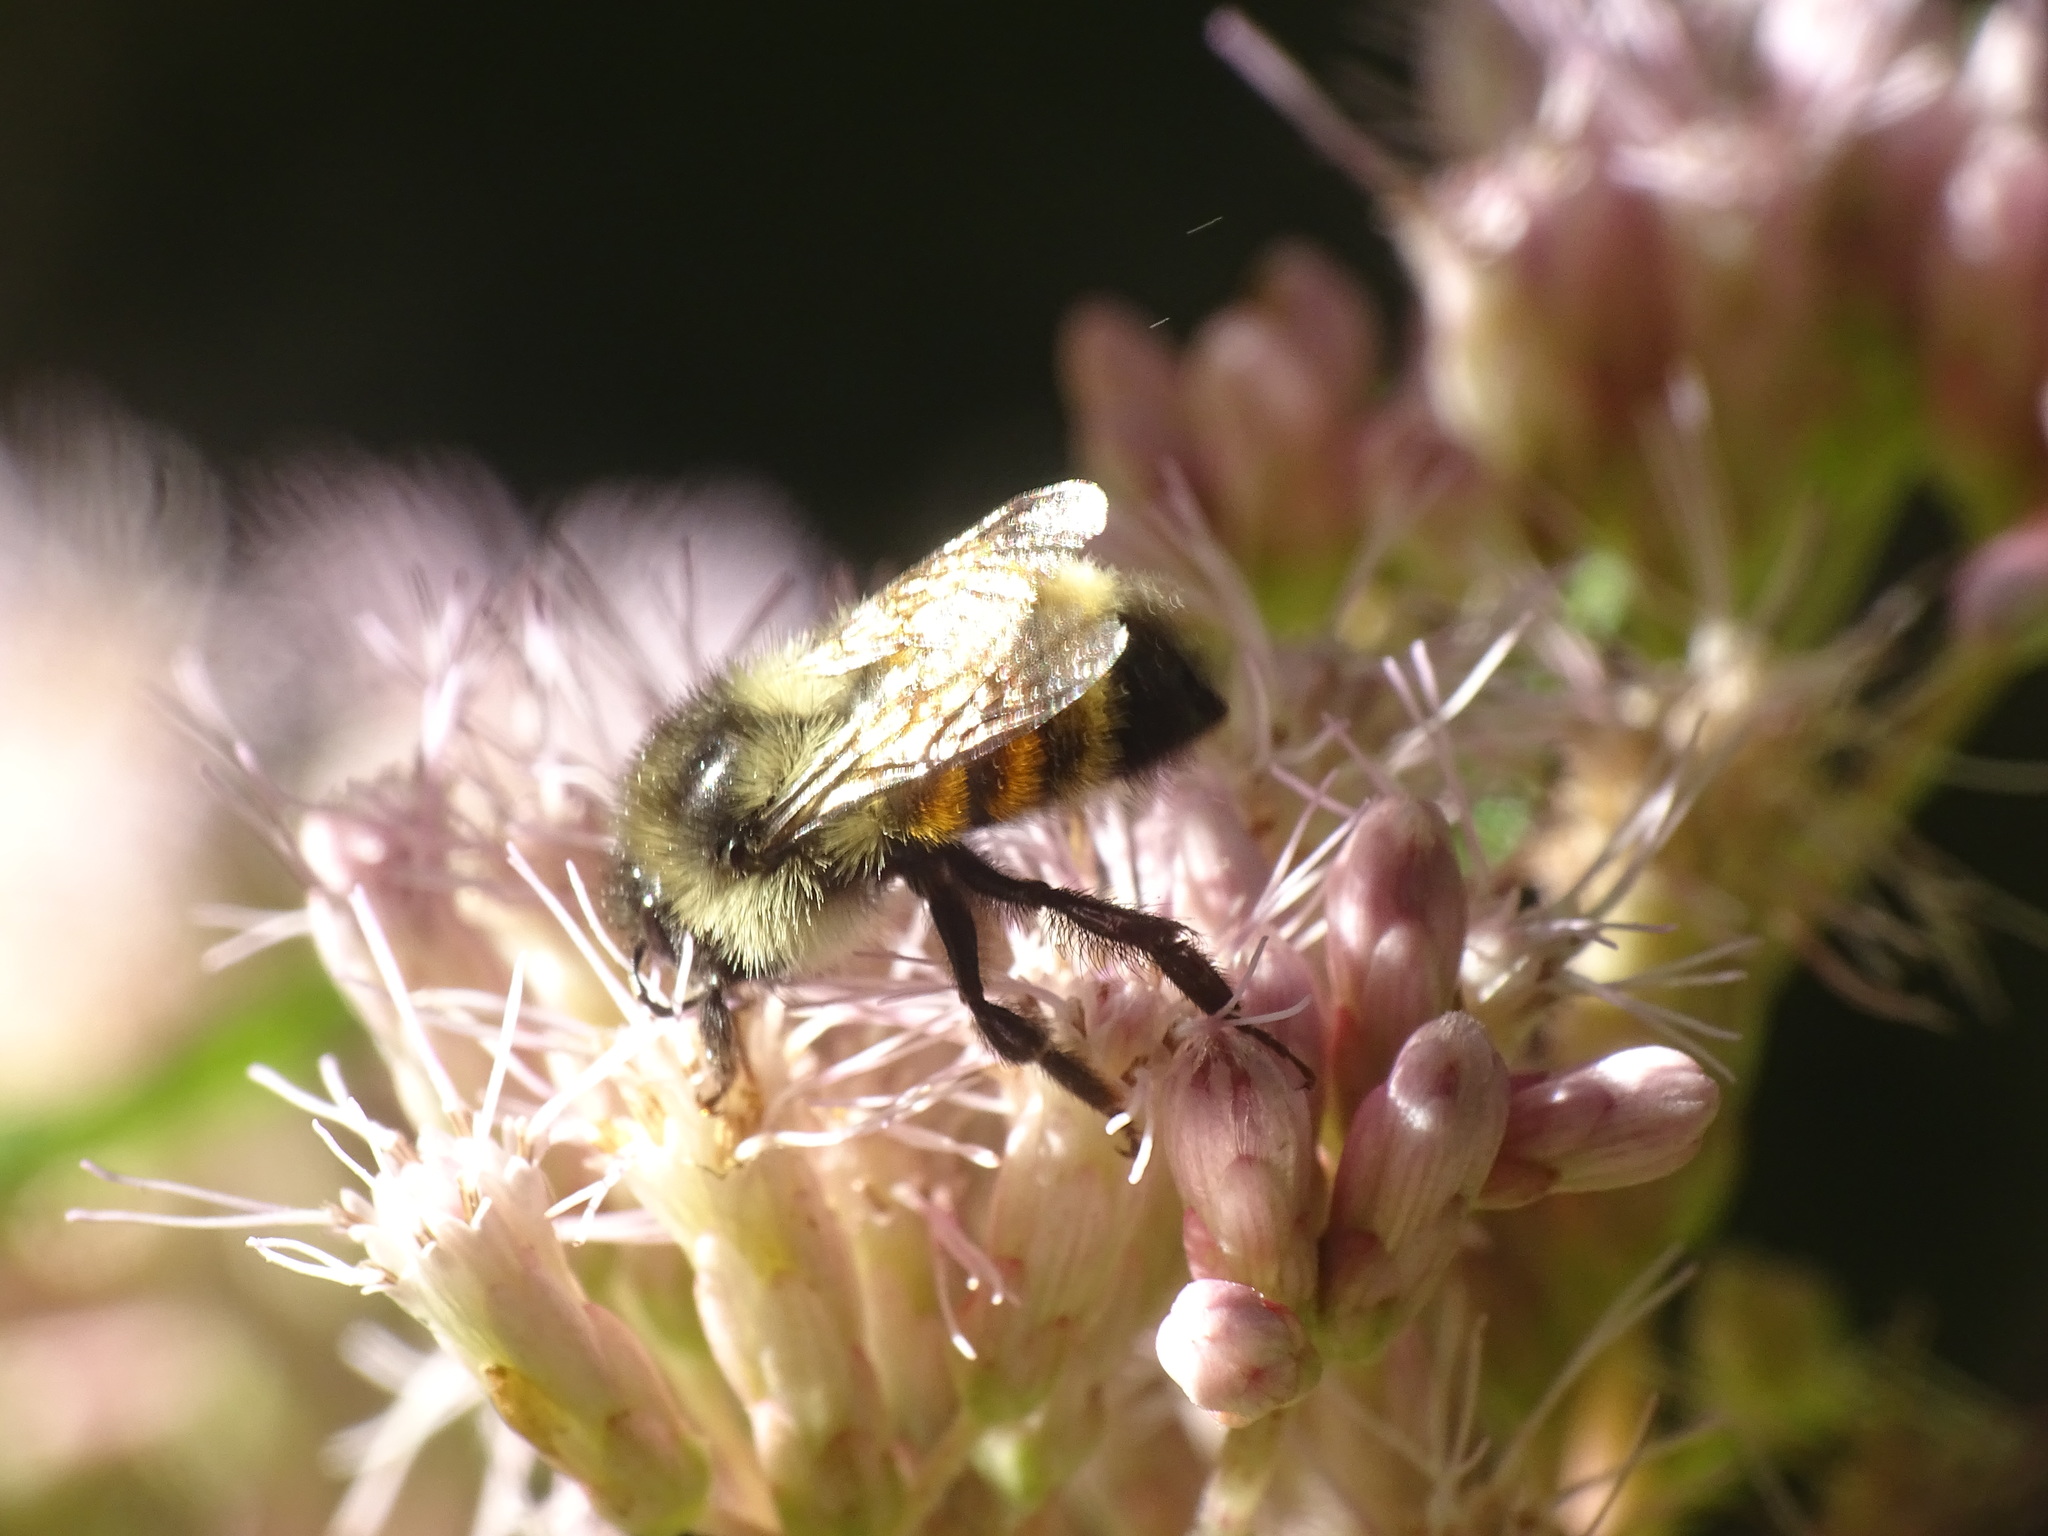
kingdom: Animalia
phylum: Arthropoda
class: Insecta
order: Hymenoptera
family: Apidae
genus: Bombus
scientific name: Bombus ternarius
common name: Tri-colored bumble bee
